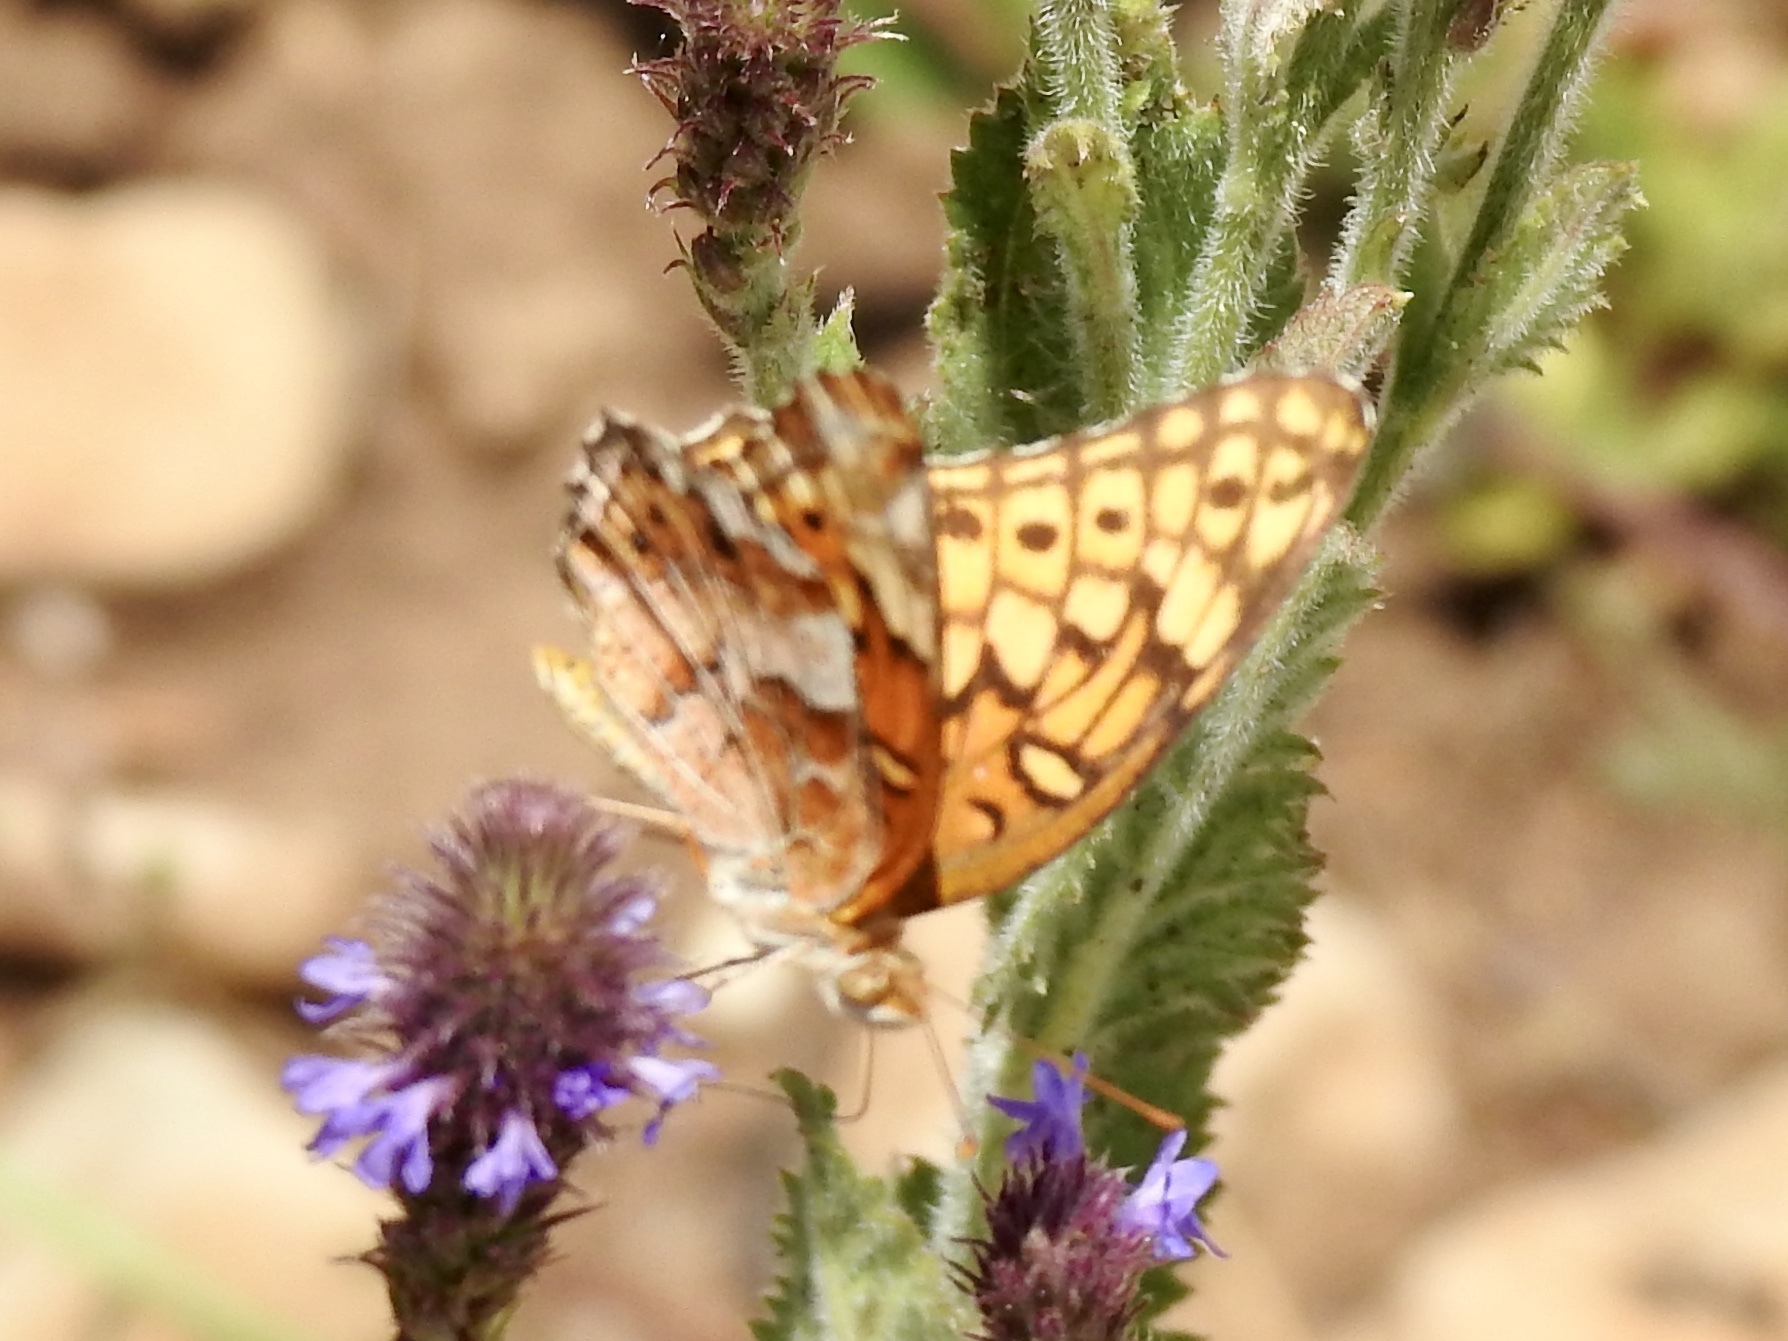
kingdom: Animalia
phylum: Arthropoda
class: Insecta
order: Lepidoptera
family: Nymphalidae
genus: Euptoieta
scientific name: Euptoieta claudia
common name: Variegated fritillary
